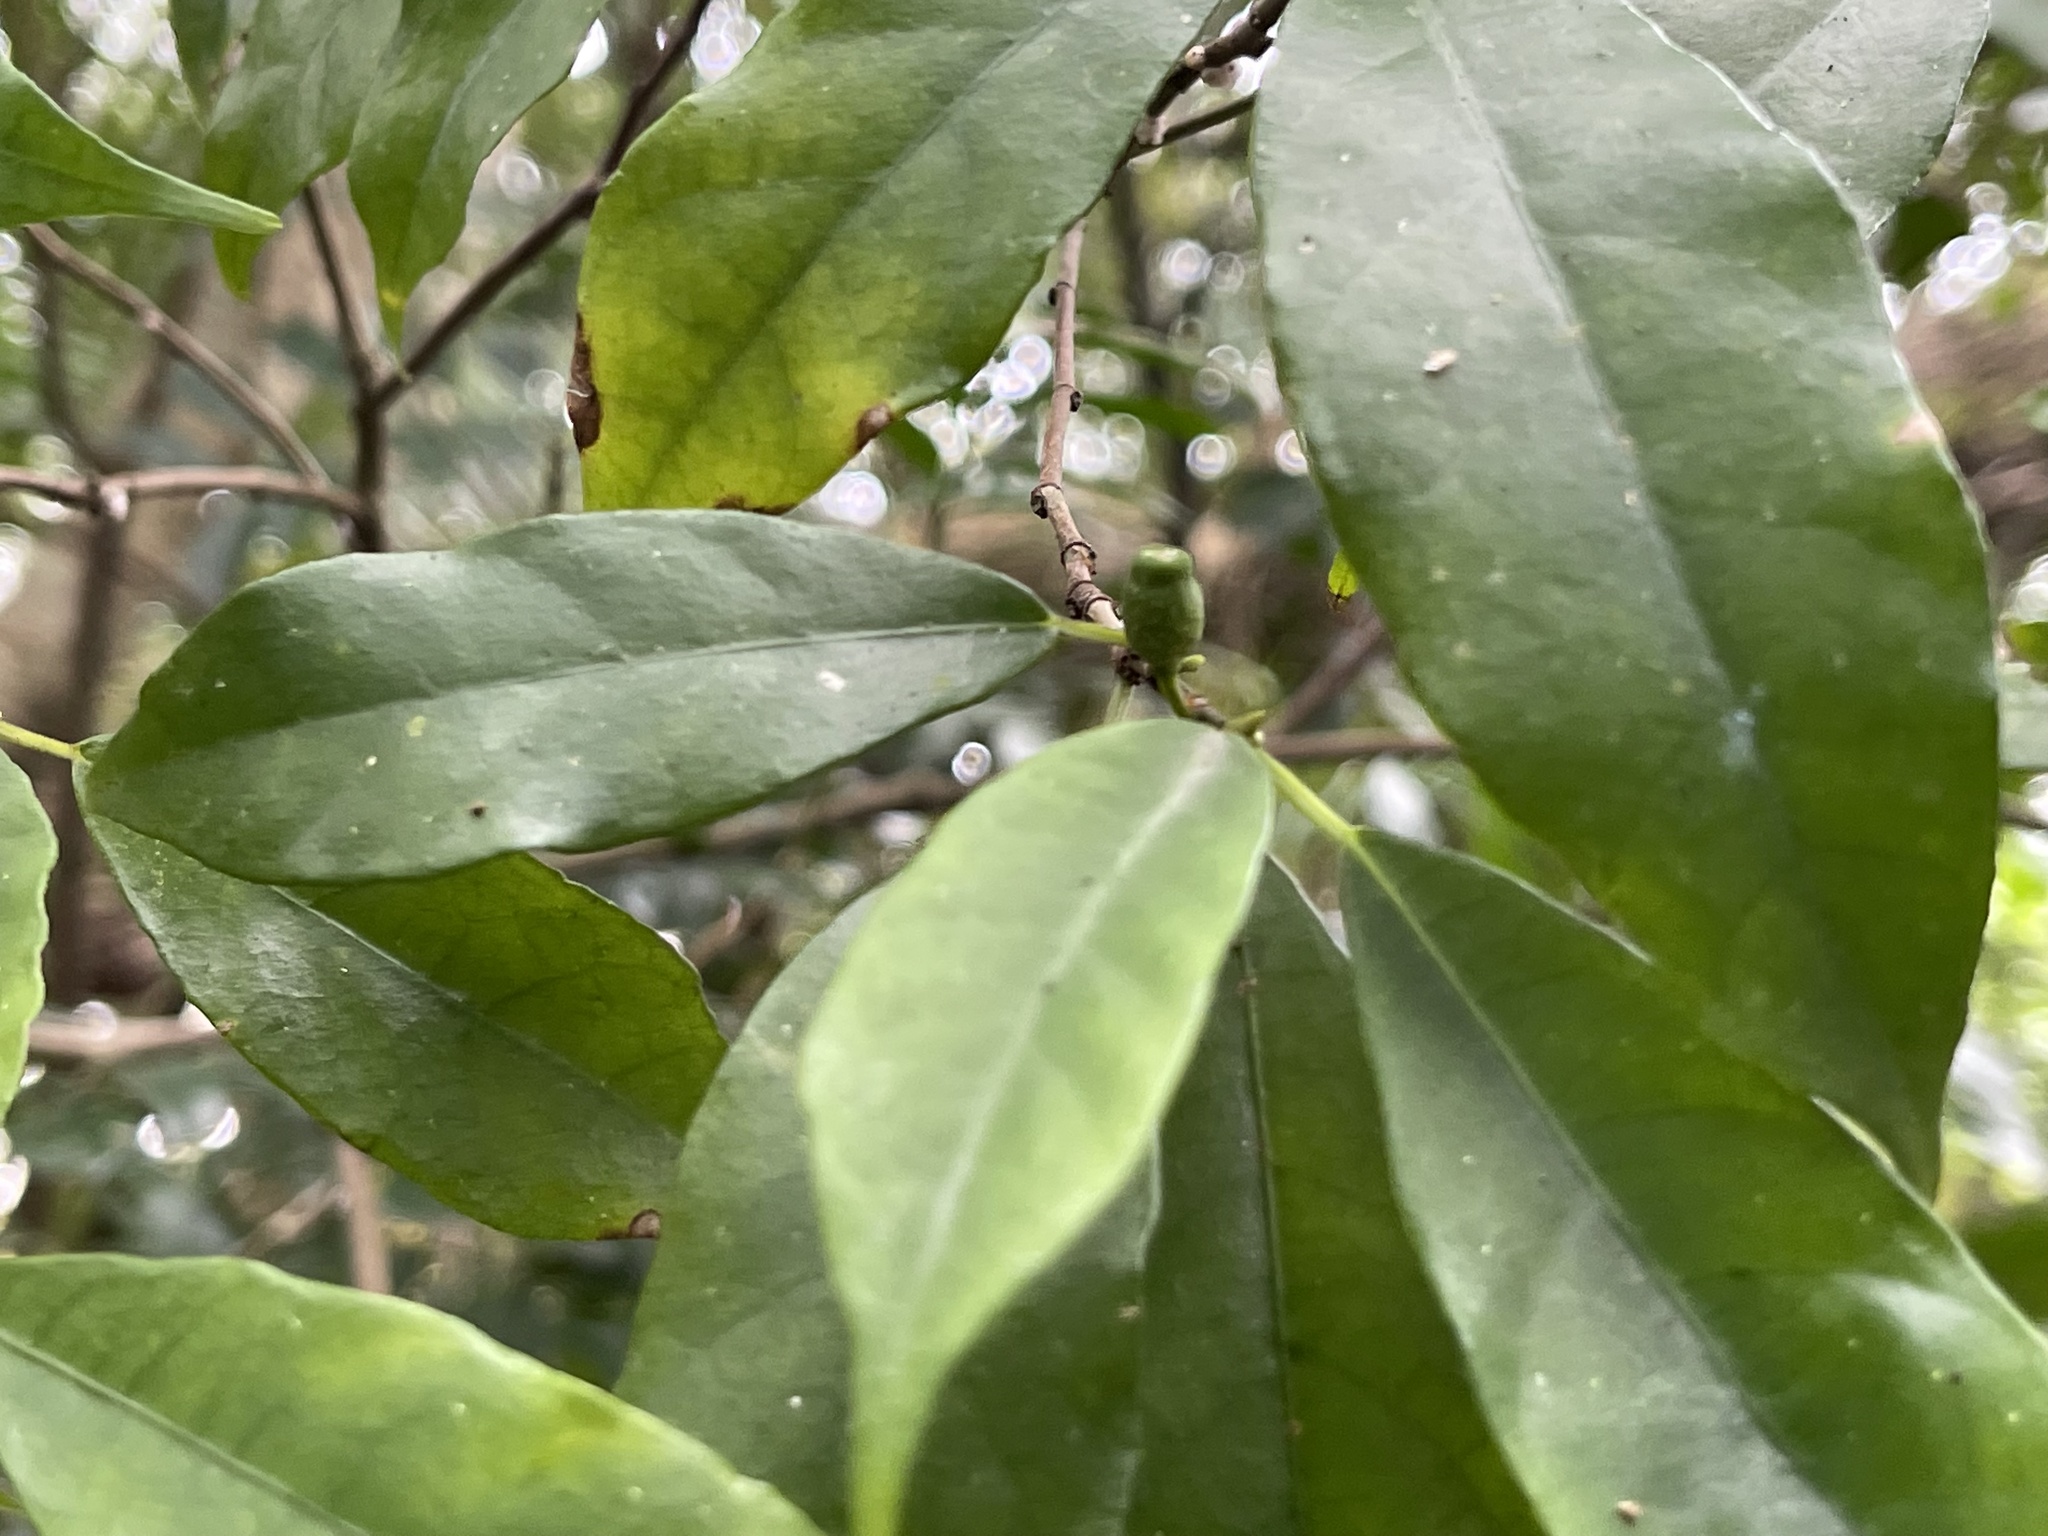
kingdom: Plantae
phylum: Tracheophyta
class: Magnoliopsida
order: Rosales
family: Moraceae
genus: Ficus
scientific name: Ficus formosana
